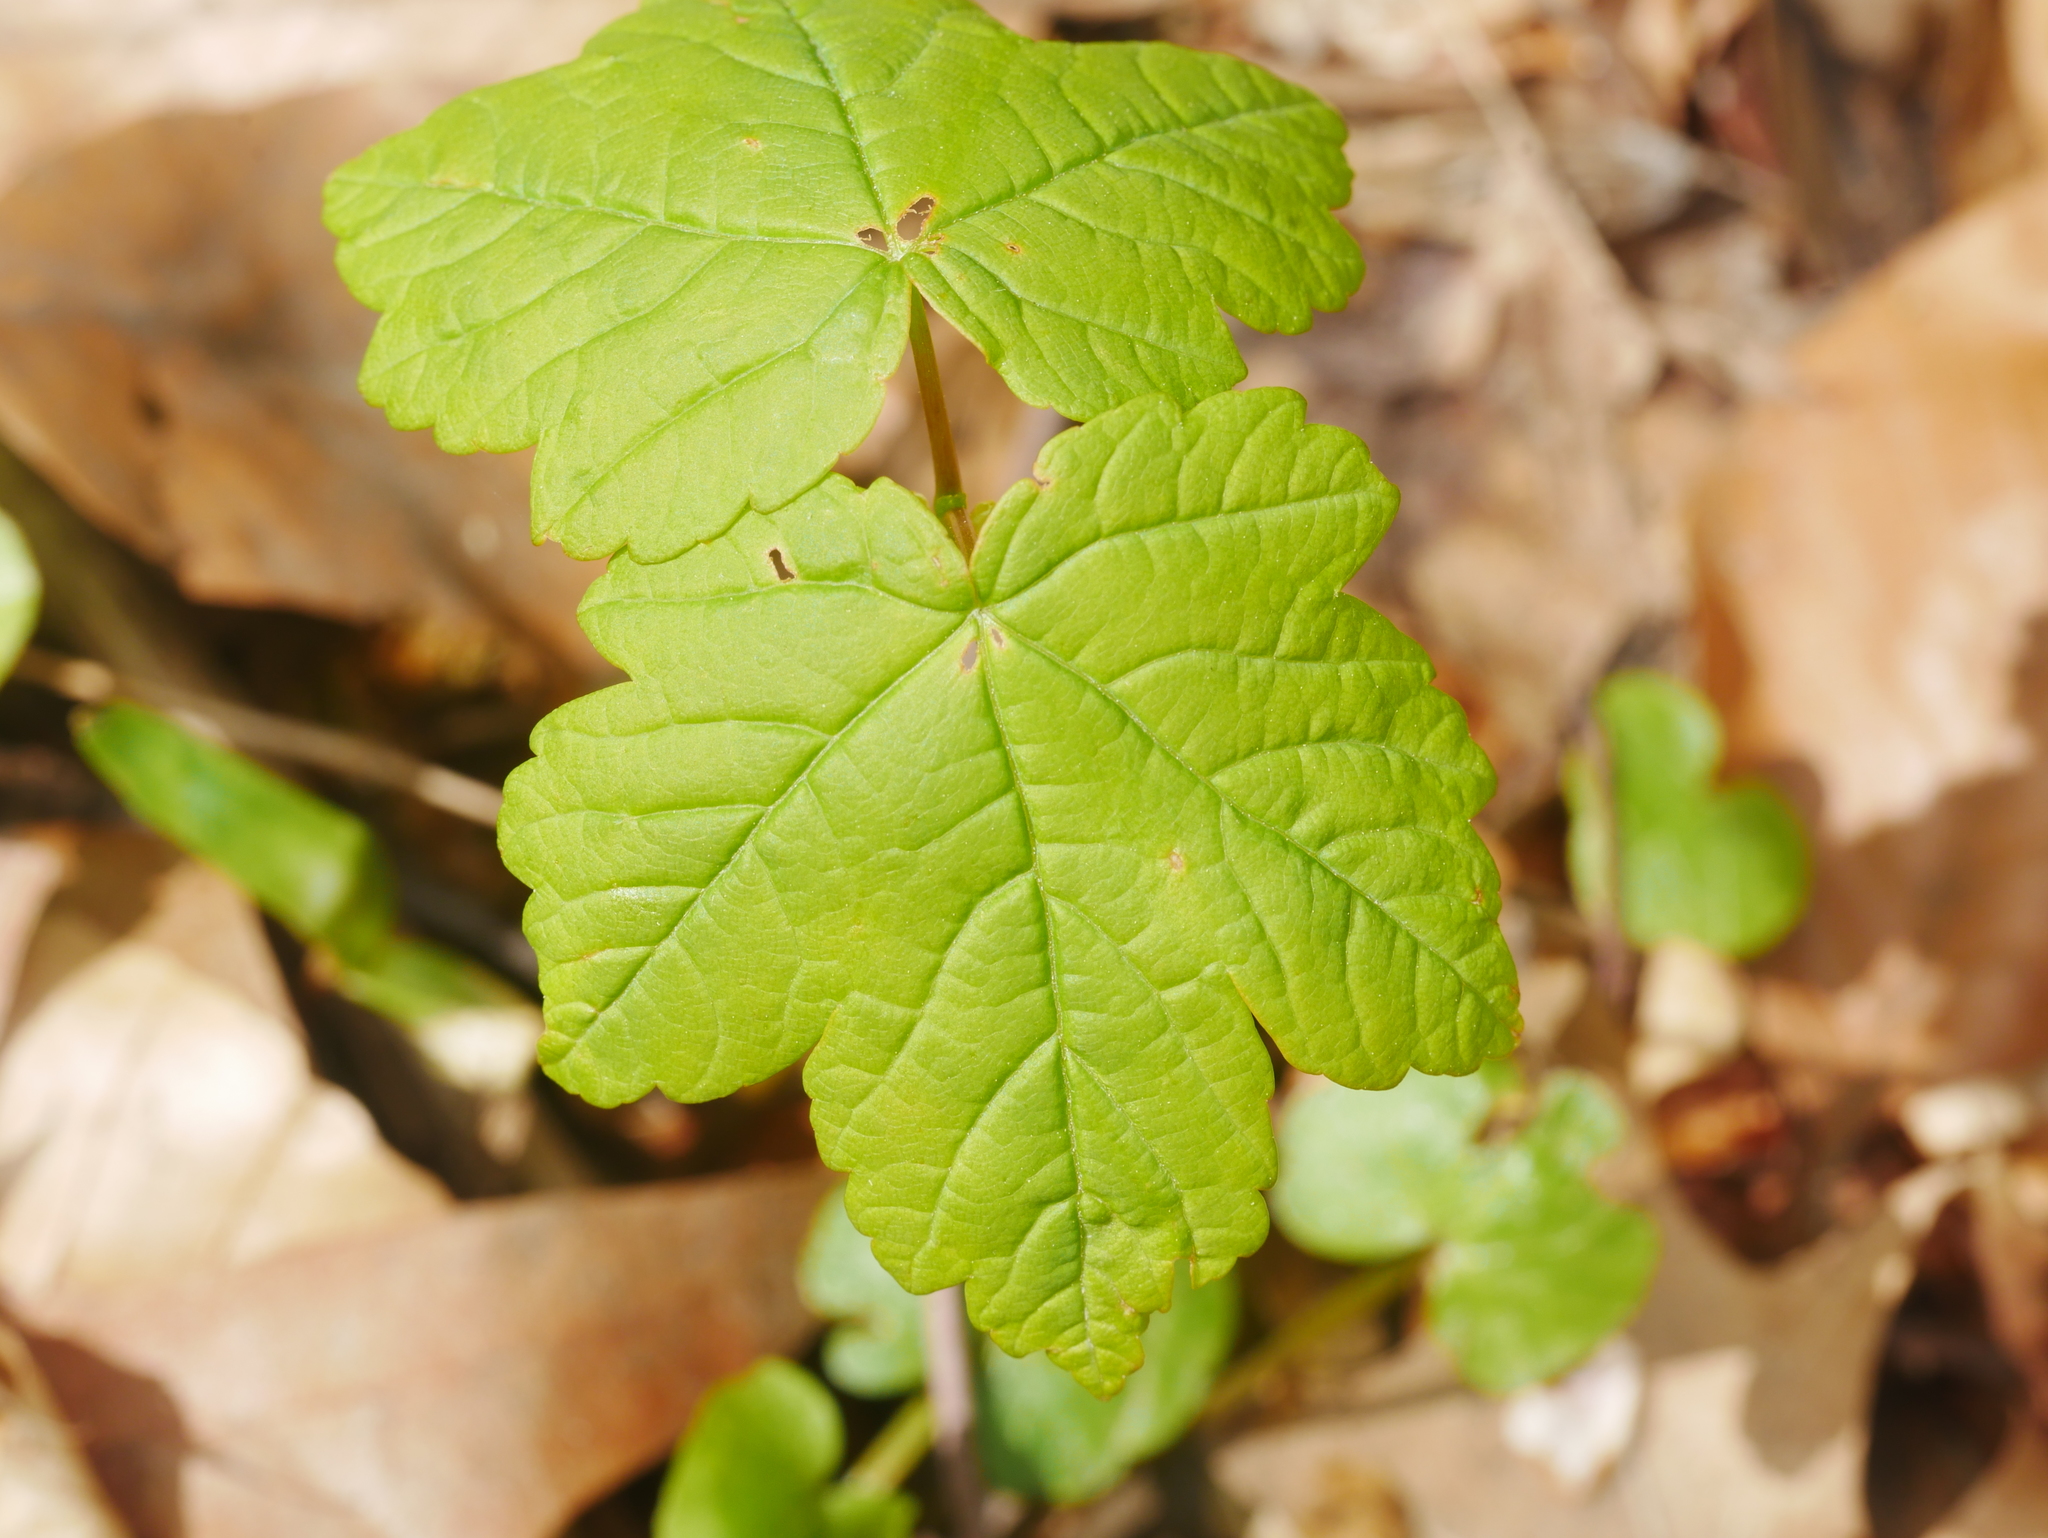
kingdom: Plantae
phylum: Tracheophyta
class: Magnoliopsida
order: Sapindales
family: Sapindaceae
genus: Acer
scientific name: Acer pseudoplatanus
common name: Sycamore
